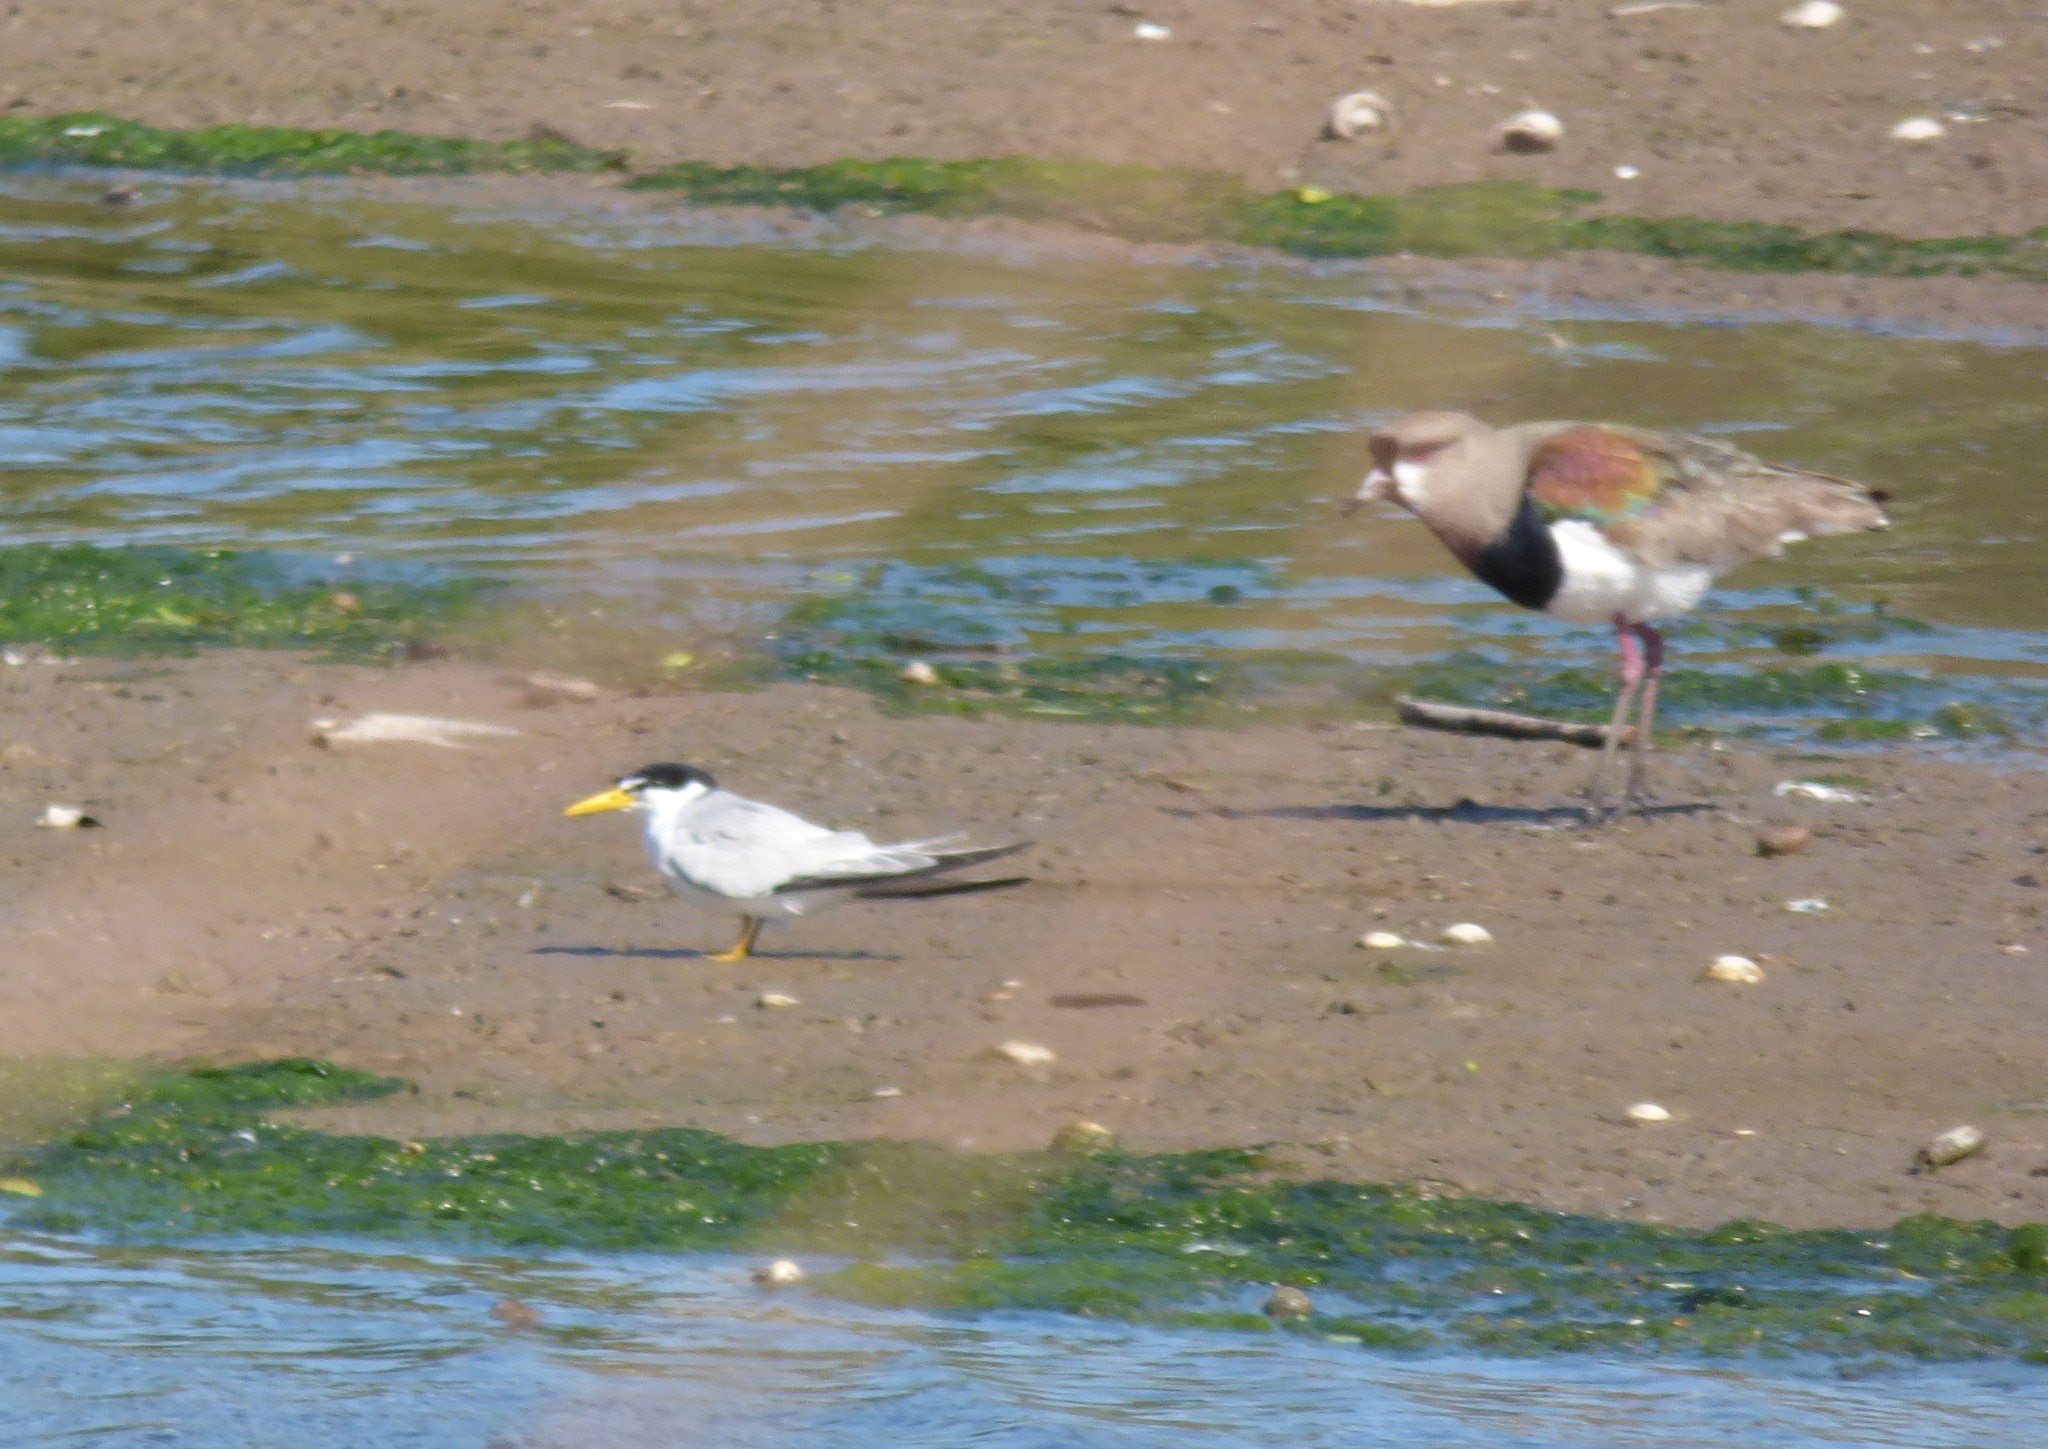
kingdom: Animalia
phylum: Chordata
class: Aves
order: Charadriiformes
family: Charadriidae
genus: Vanellus
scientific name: Vanellus chilensis
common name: Southern lapwing
